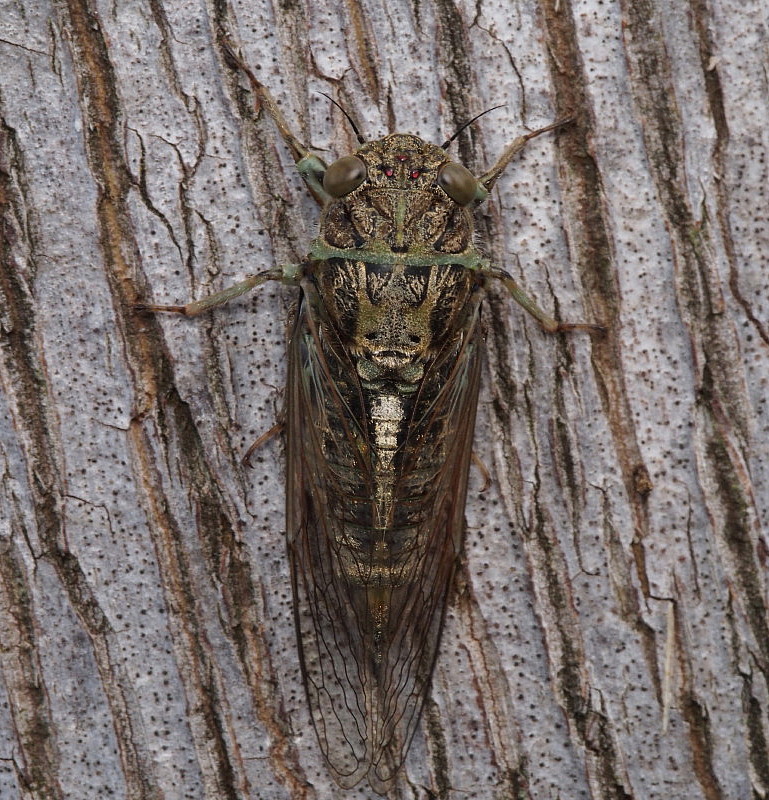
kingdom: Animalia
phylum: Arthropoda
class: Insecta
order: Hemiptera
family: Cicadidae
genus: Notopsalta
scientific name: Notopsalta sericea
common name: Clay bank cicada
